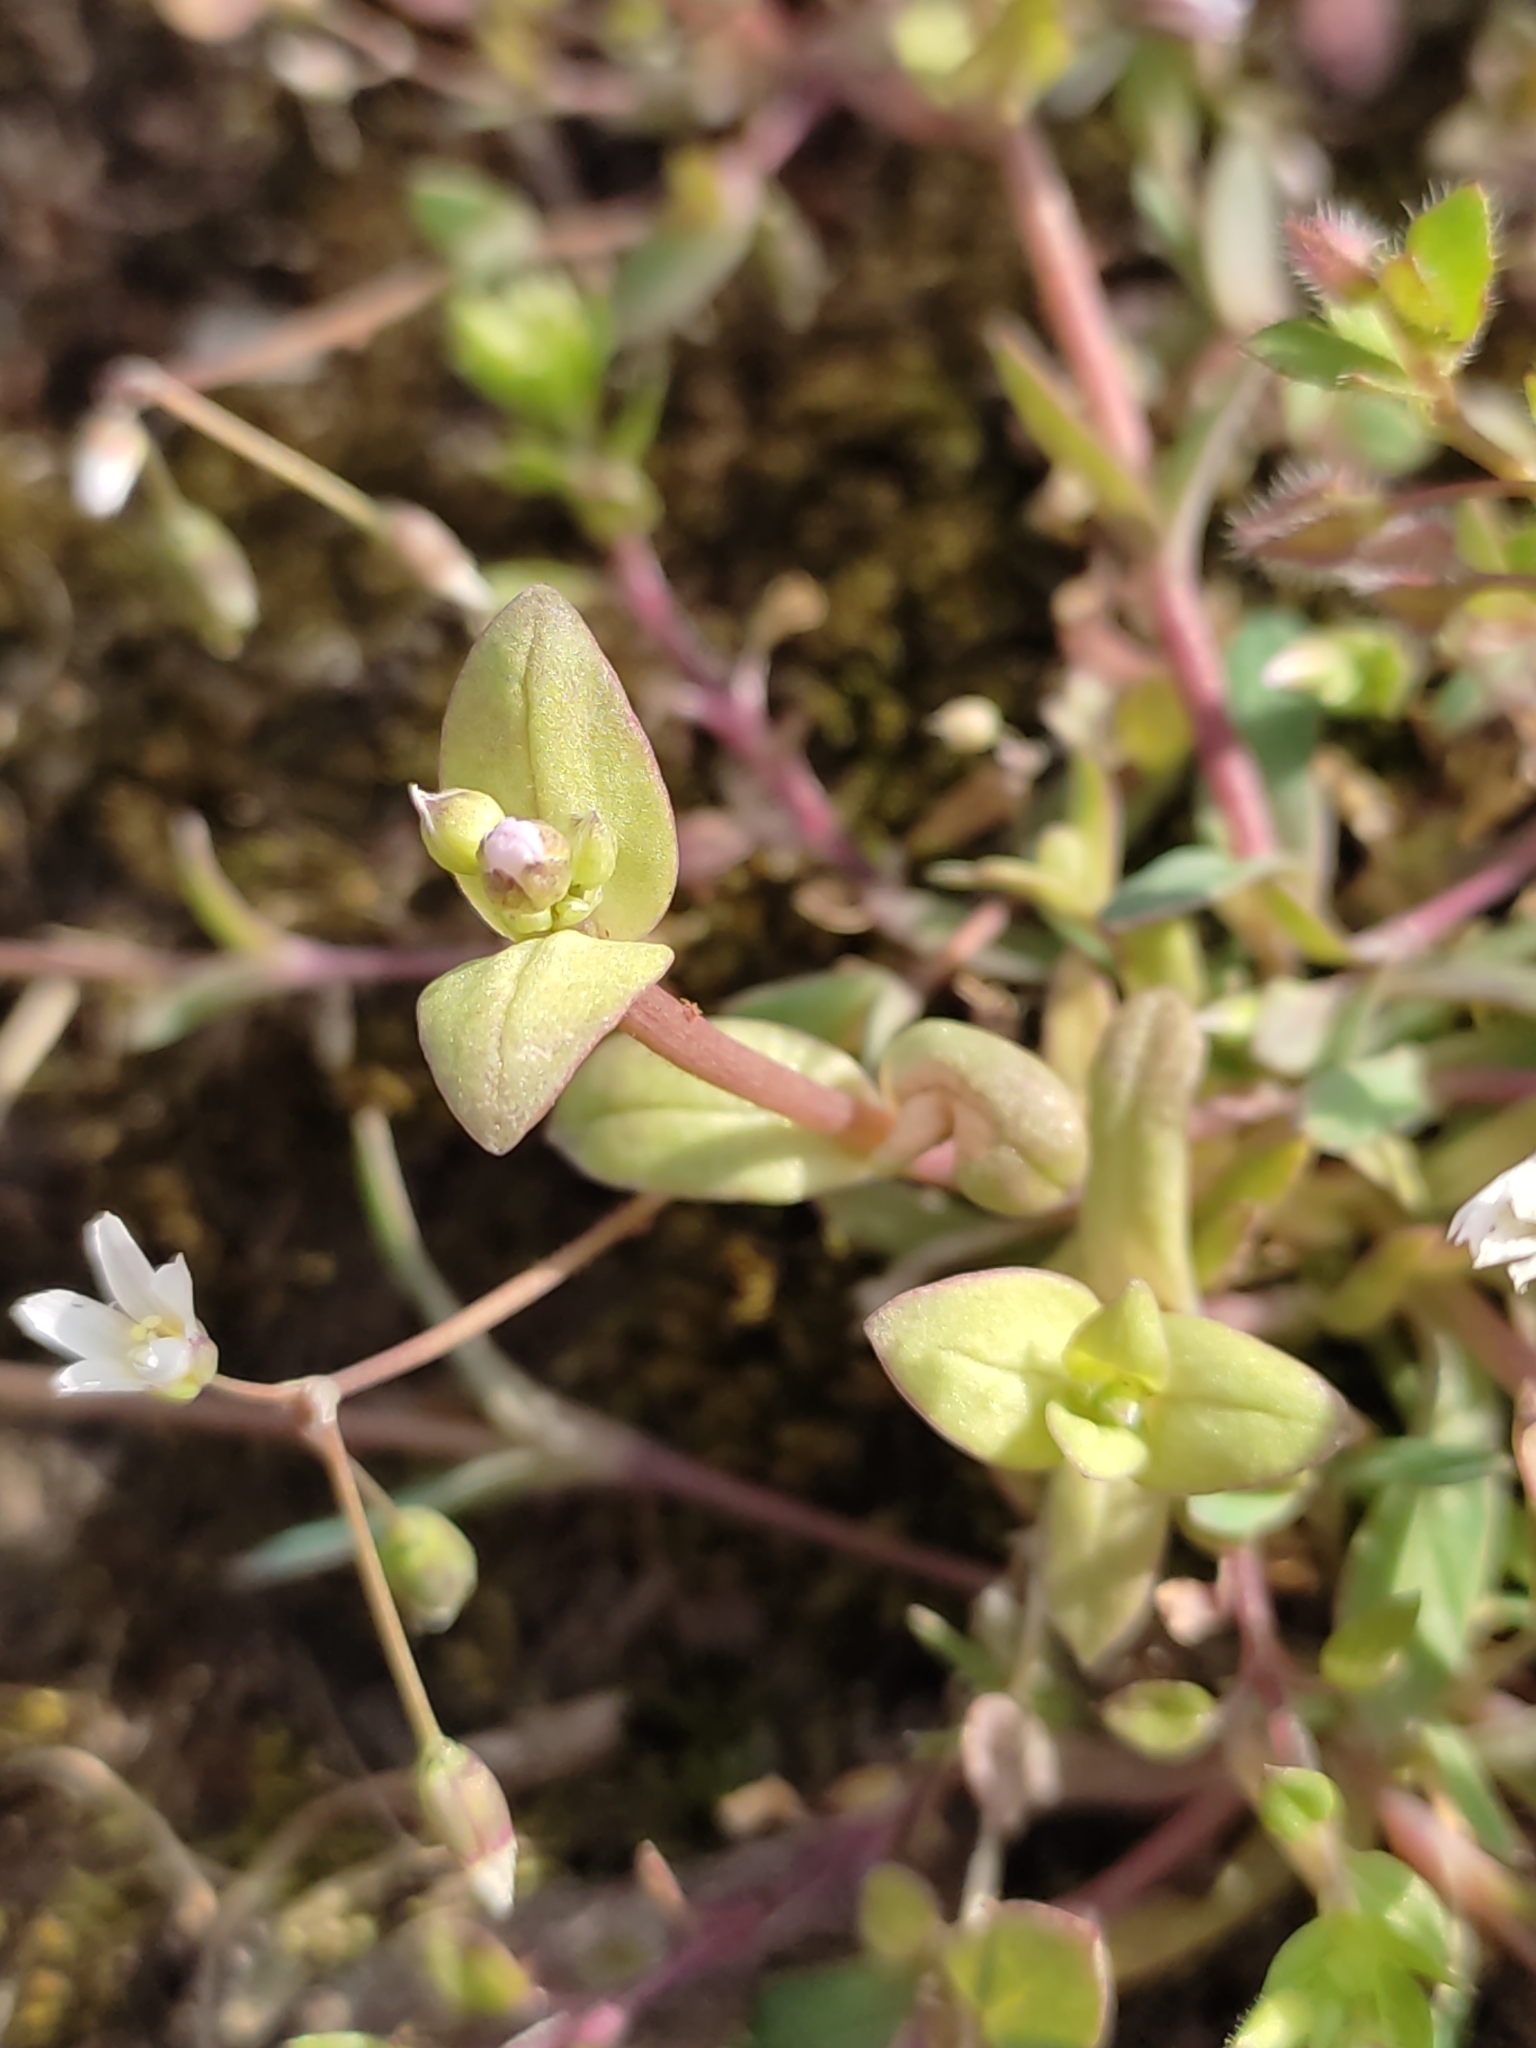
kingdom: Plantae
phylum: Tracheophyta
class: Magnoliopsida
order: Caryophyllales
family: Caryophyllaceae
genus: Holosteum
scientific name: Holosteum umbellatum
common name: Jagged chickweed
